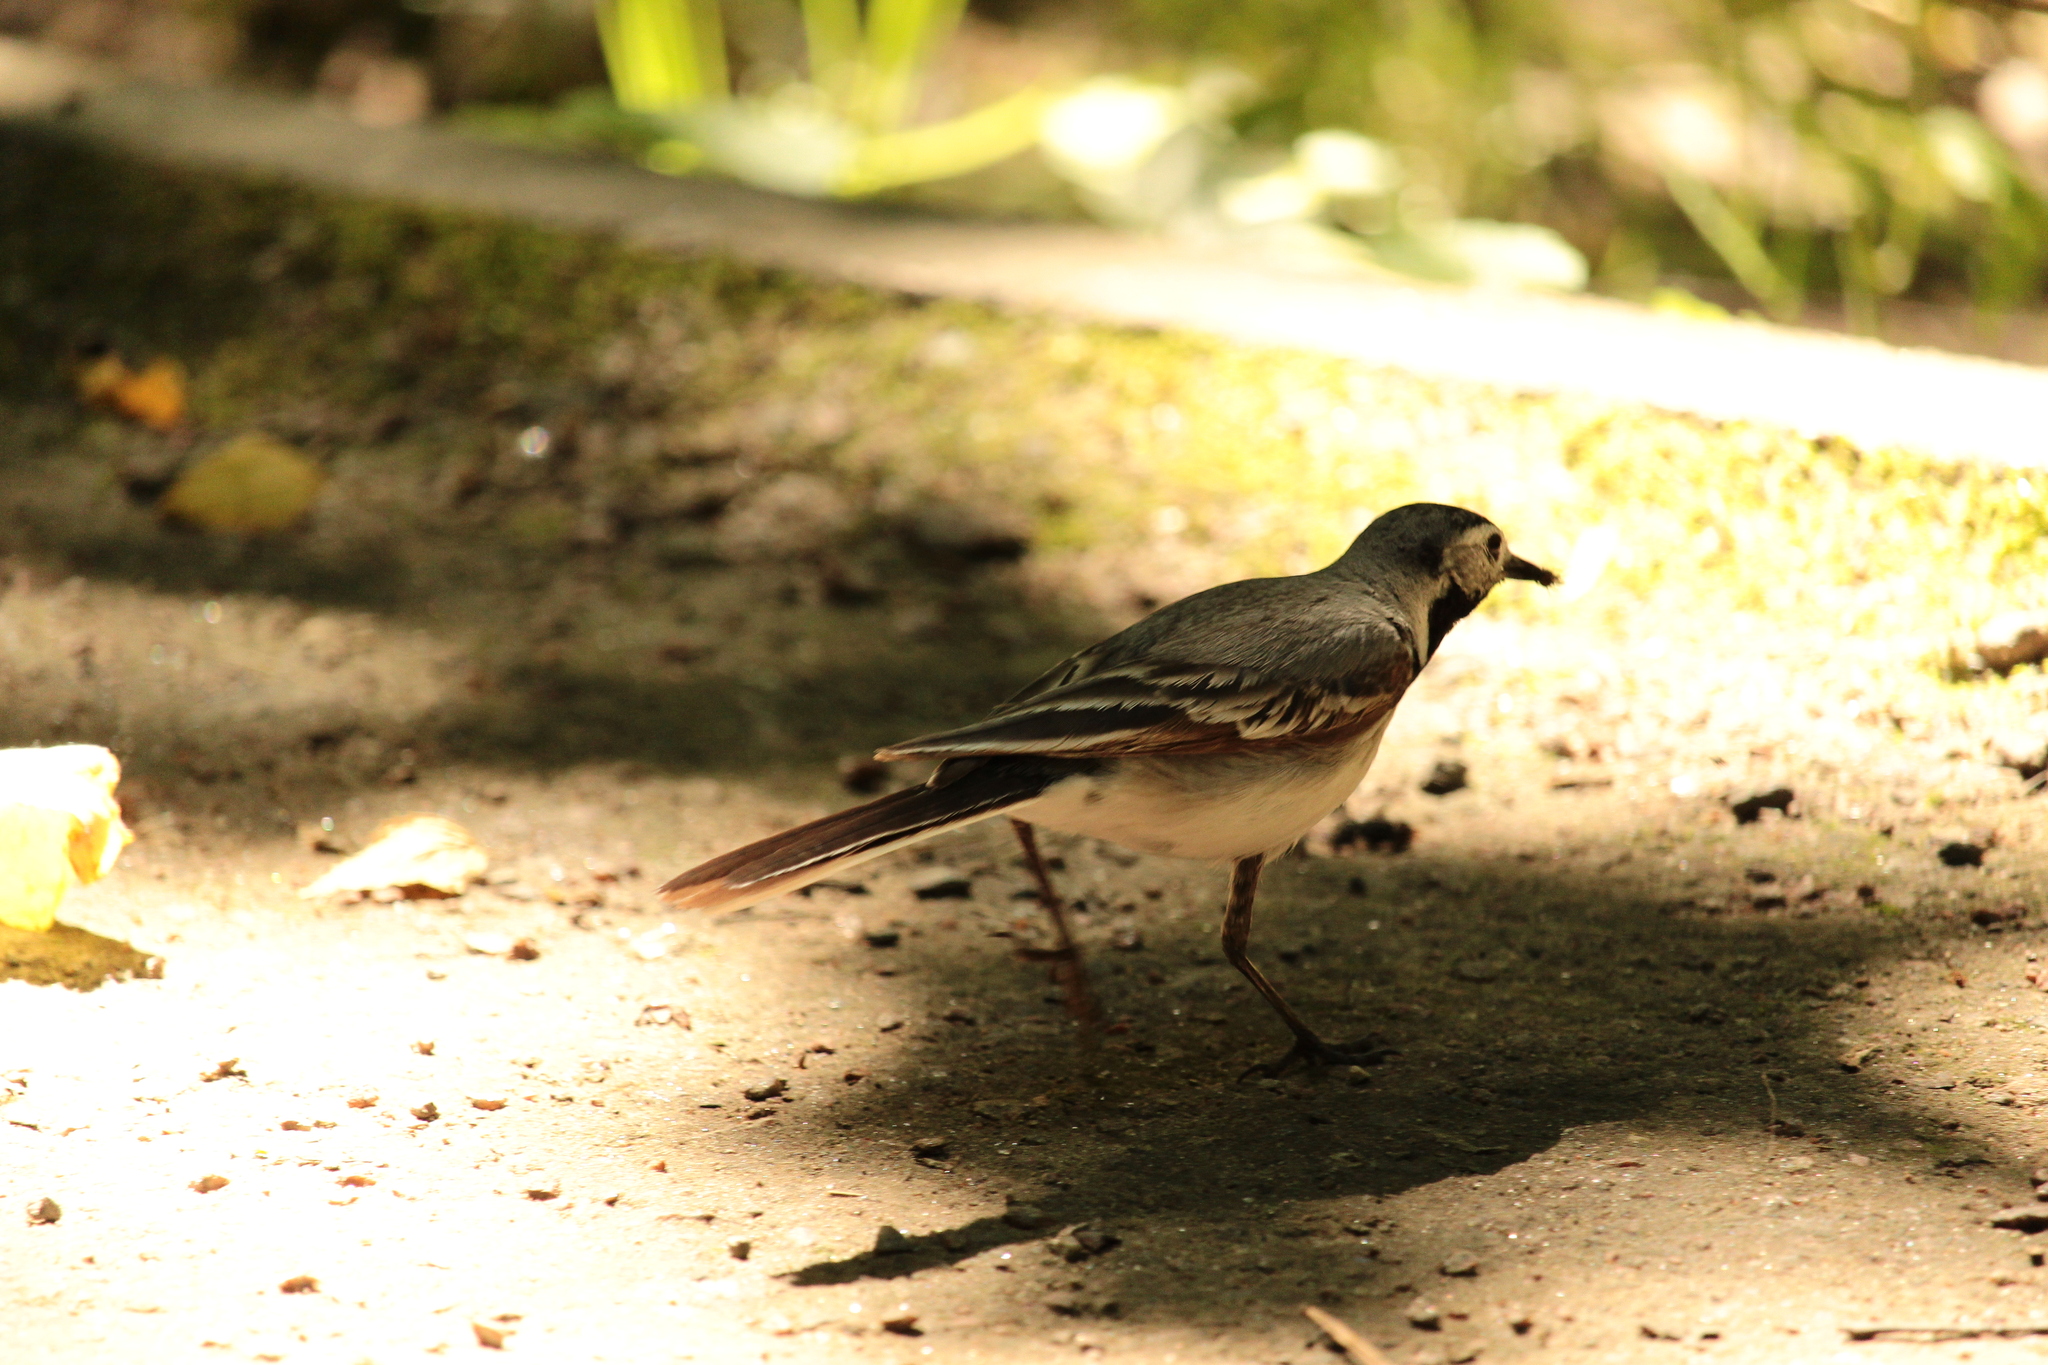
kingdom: Animalia
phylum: Chordata
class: Aves
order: Passeriformes
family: Motacillidae
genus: Motacilla
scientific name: Motacilla alba
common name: White wagtail
